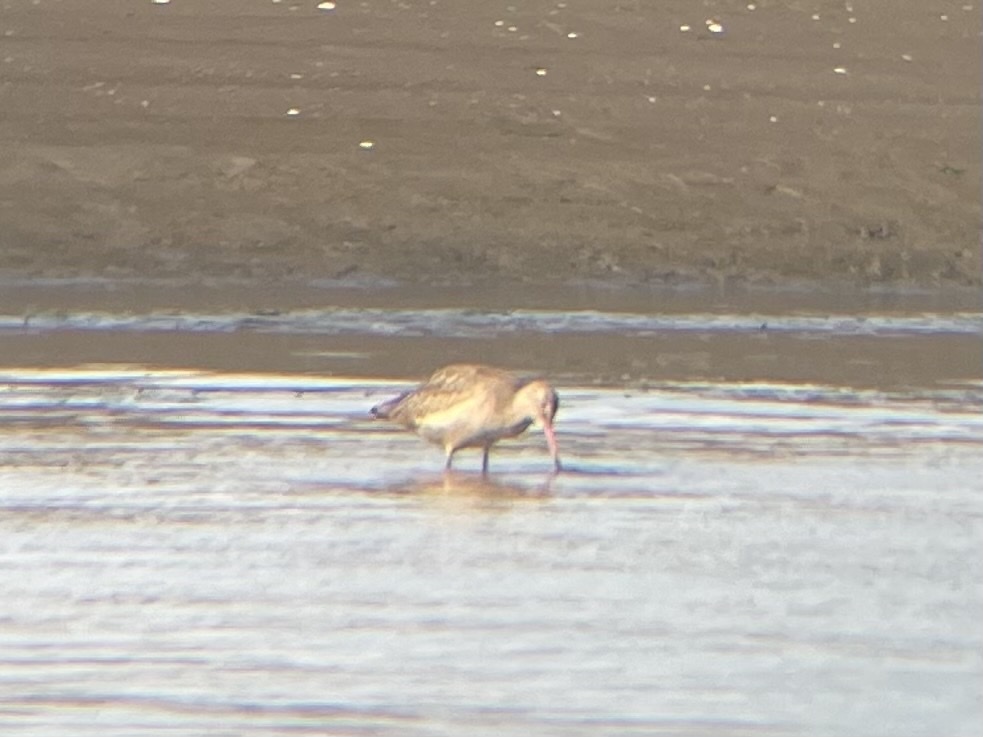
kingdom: Animalia
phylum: Chordata
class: Aves
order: Charadriiformes
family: Scolopacidae
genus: Limosa
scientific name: Limosa fedoa
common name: Marbled godwit
